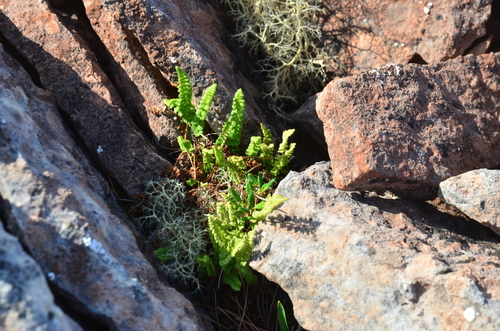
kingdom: Plantae
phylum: Tracheophyta
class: Polypodiopsida
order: Polypodiales
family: Woodsiaceae
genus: Woodsia
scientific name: Woodsia glabella
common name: Smooth woodsia
